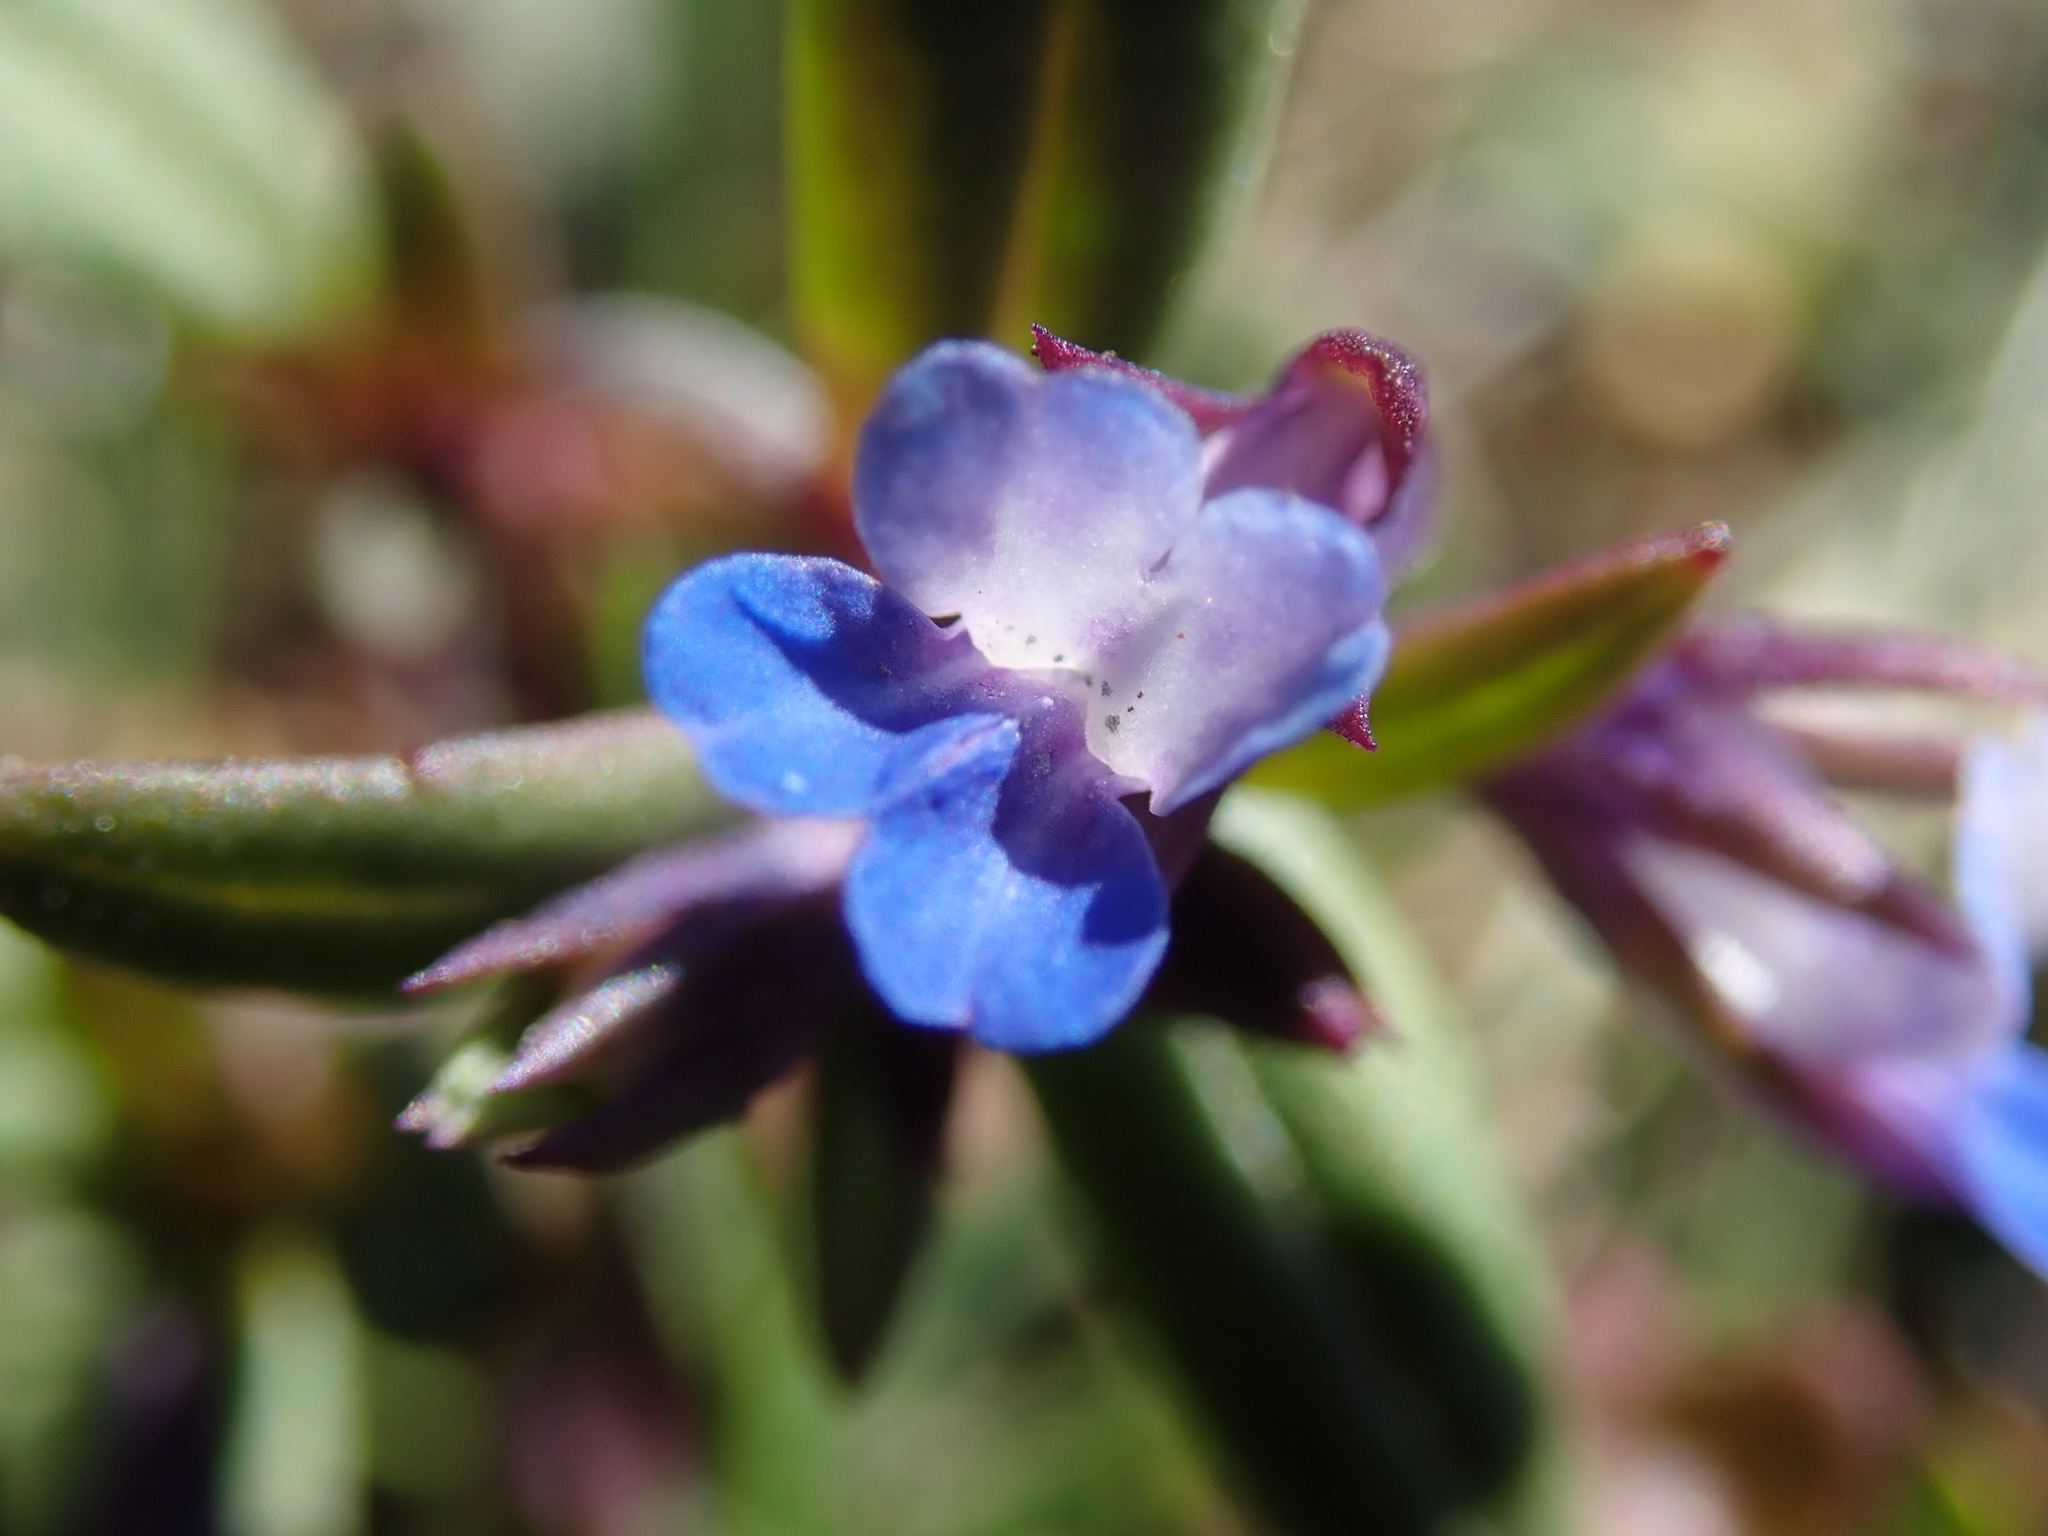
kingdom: Plantae
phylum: Tracheophyta
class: Magnoliopsida
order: Lamiales
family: Plantaginaceae
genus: Collinsia
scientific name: Collinsia parviflora
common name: Blue-lips
